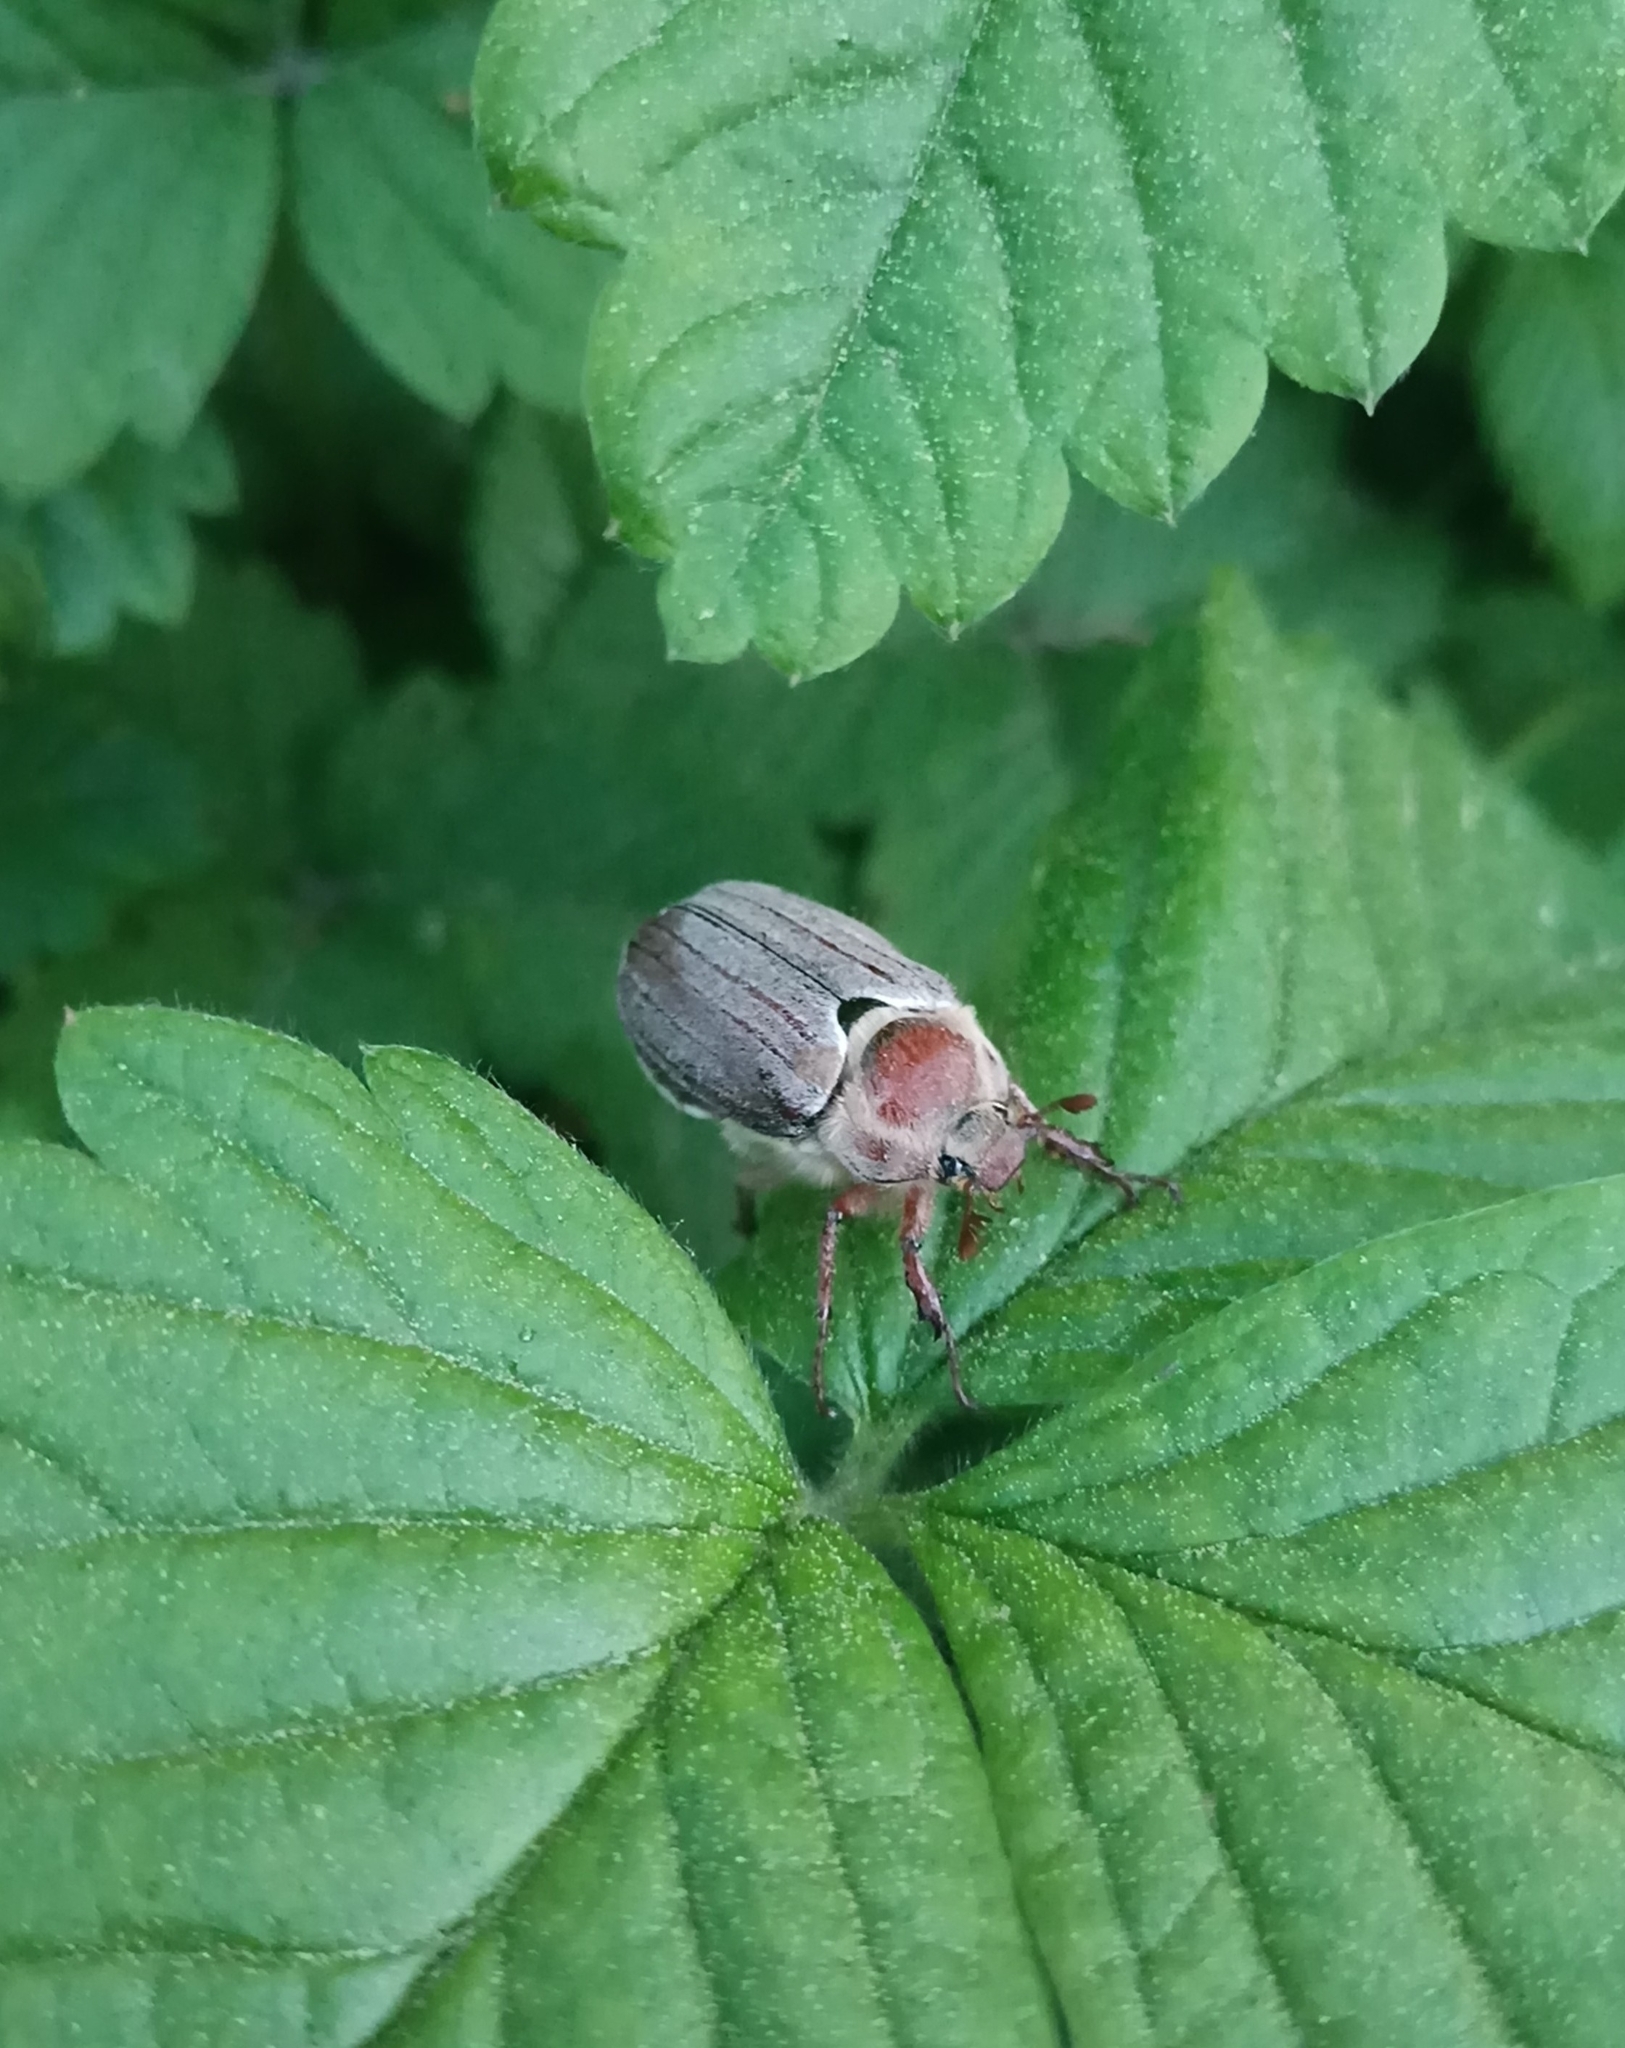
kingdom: Animalia
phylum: Arthropoda
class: Insecta
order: Coleoptera
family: Scarabaeidae
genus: Melolontha
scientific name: Melolontha hippocastani
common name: Chestnut cockchafer
